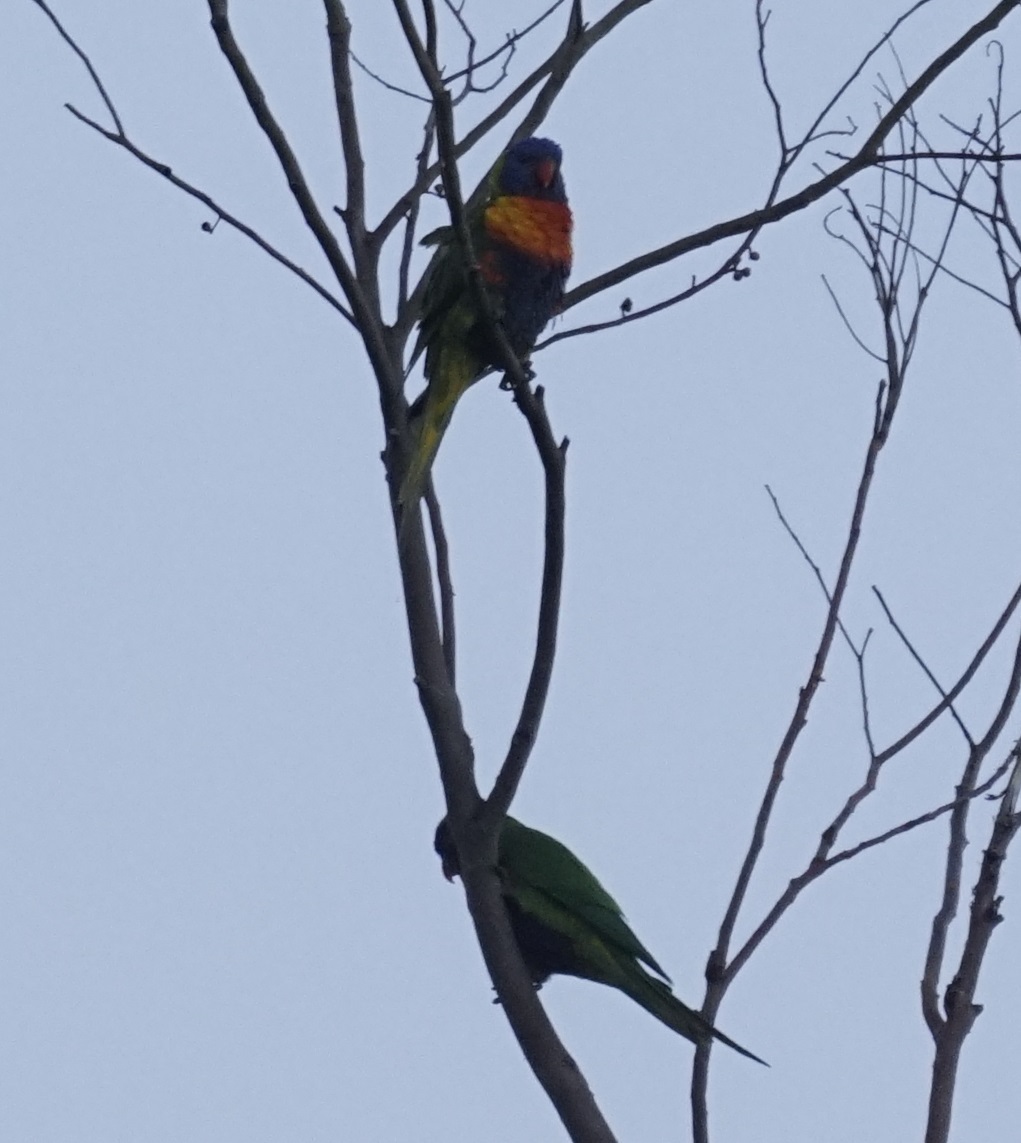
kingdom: Animalia
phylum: Chordata
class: Aves
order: Psittaciformes
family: Psittacidae
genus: Trichoglossus
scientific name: Trichoglossus haematodus
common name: Coconut lorikeet
